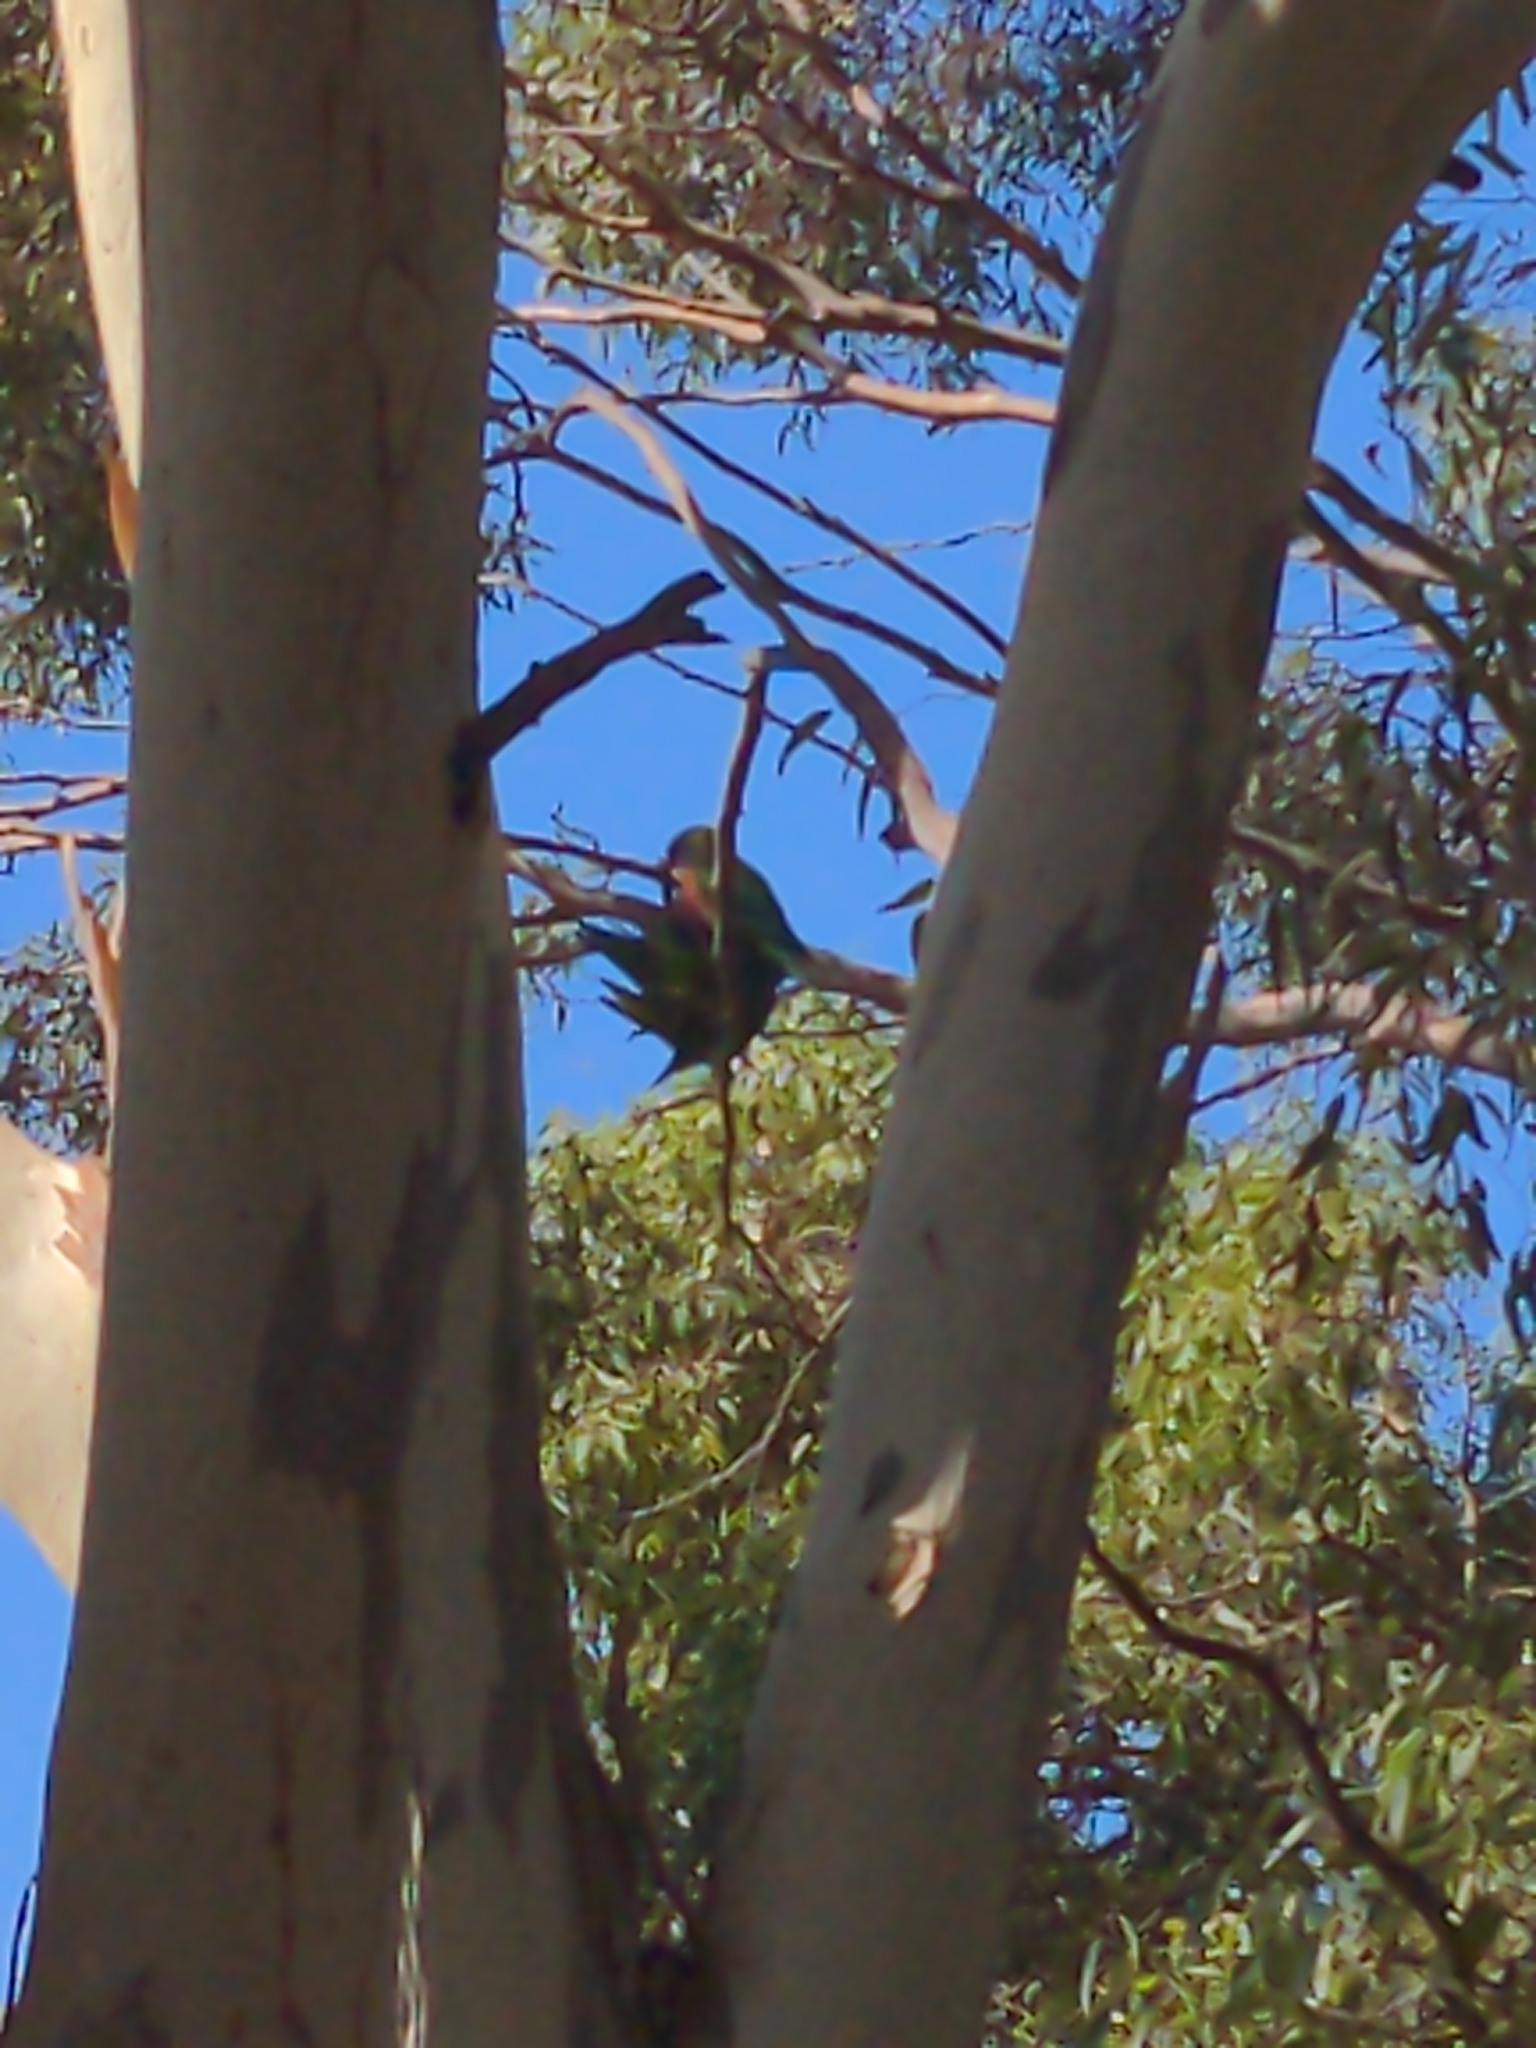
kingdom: Animalia
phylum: Chordata
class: Aves
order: Psittaciformes
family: Psittacidae
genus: Trichoglossus
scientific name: Trichoglossus haematodus
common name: Coconut lorikeet
